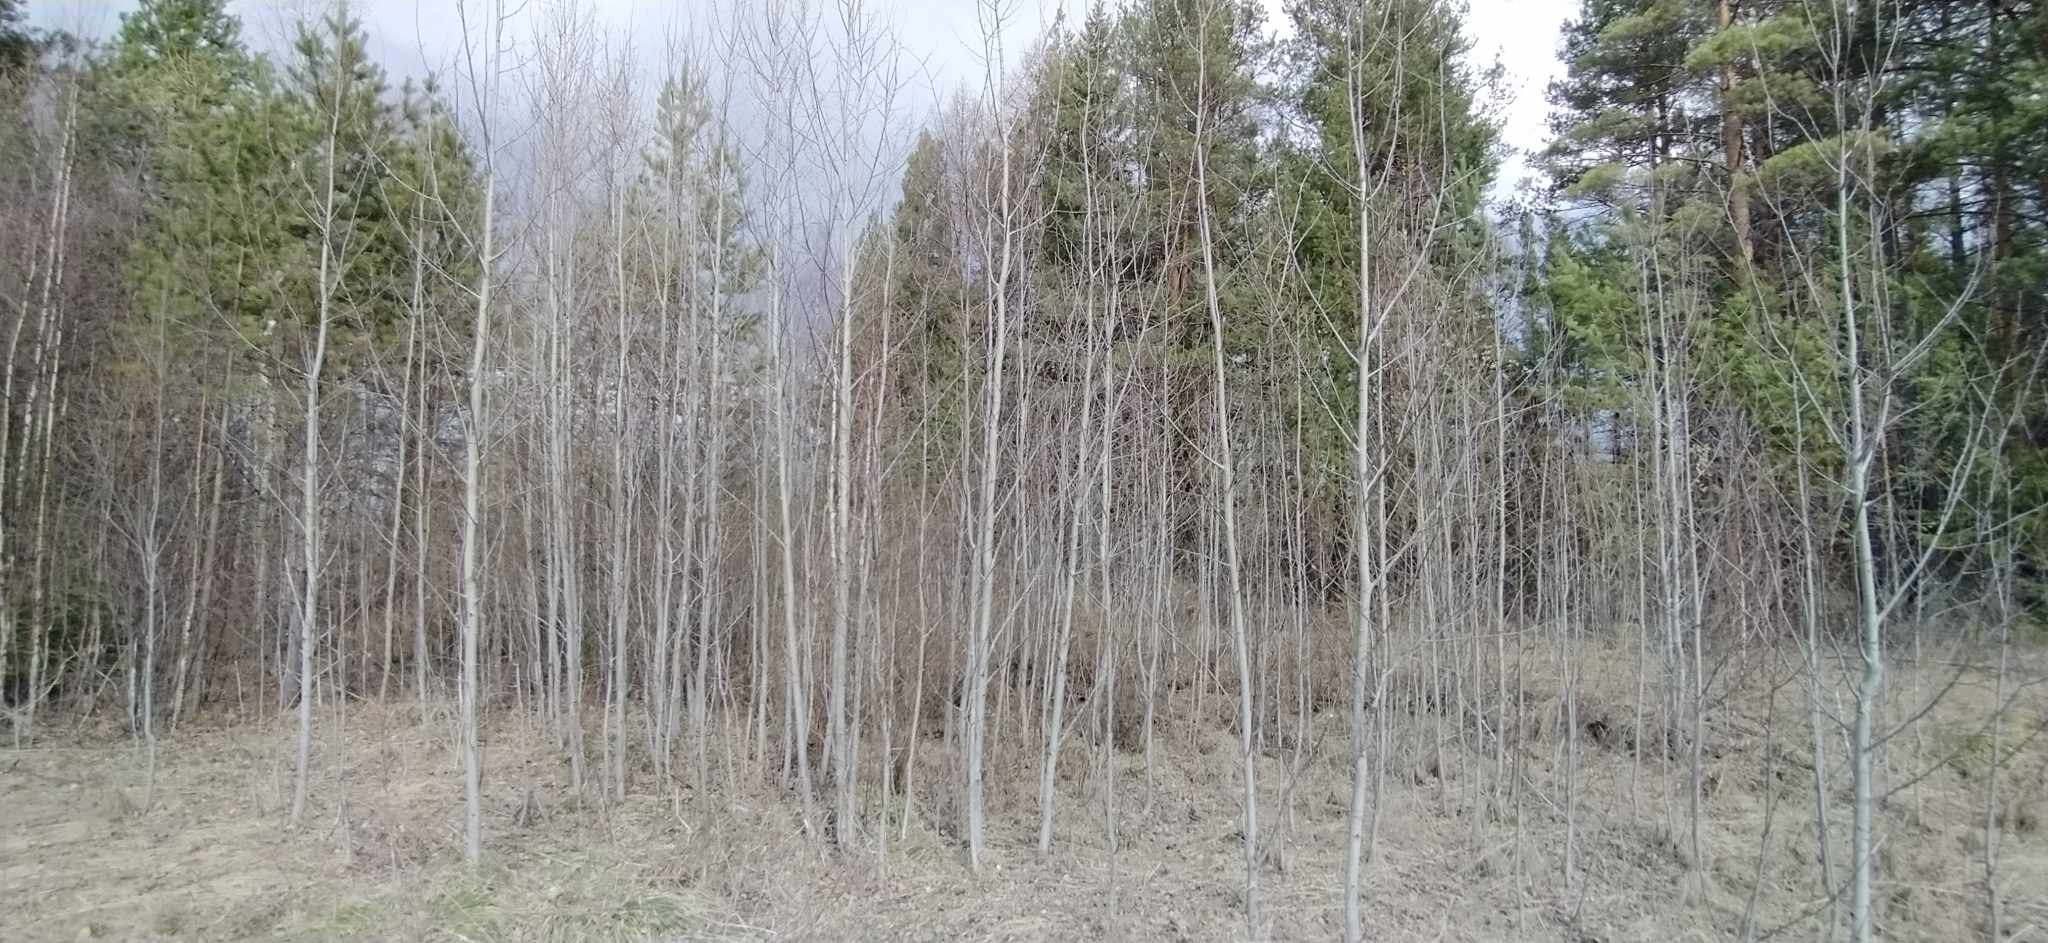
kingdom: Plantae
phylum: Tracheophyta
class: Magnoliopsida
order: Malpighiales
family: Salicaceae
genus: Populus
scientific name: Populus tremula
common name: European aspen
